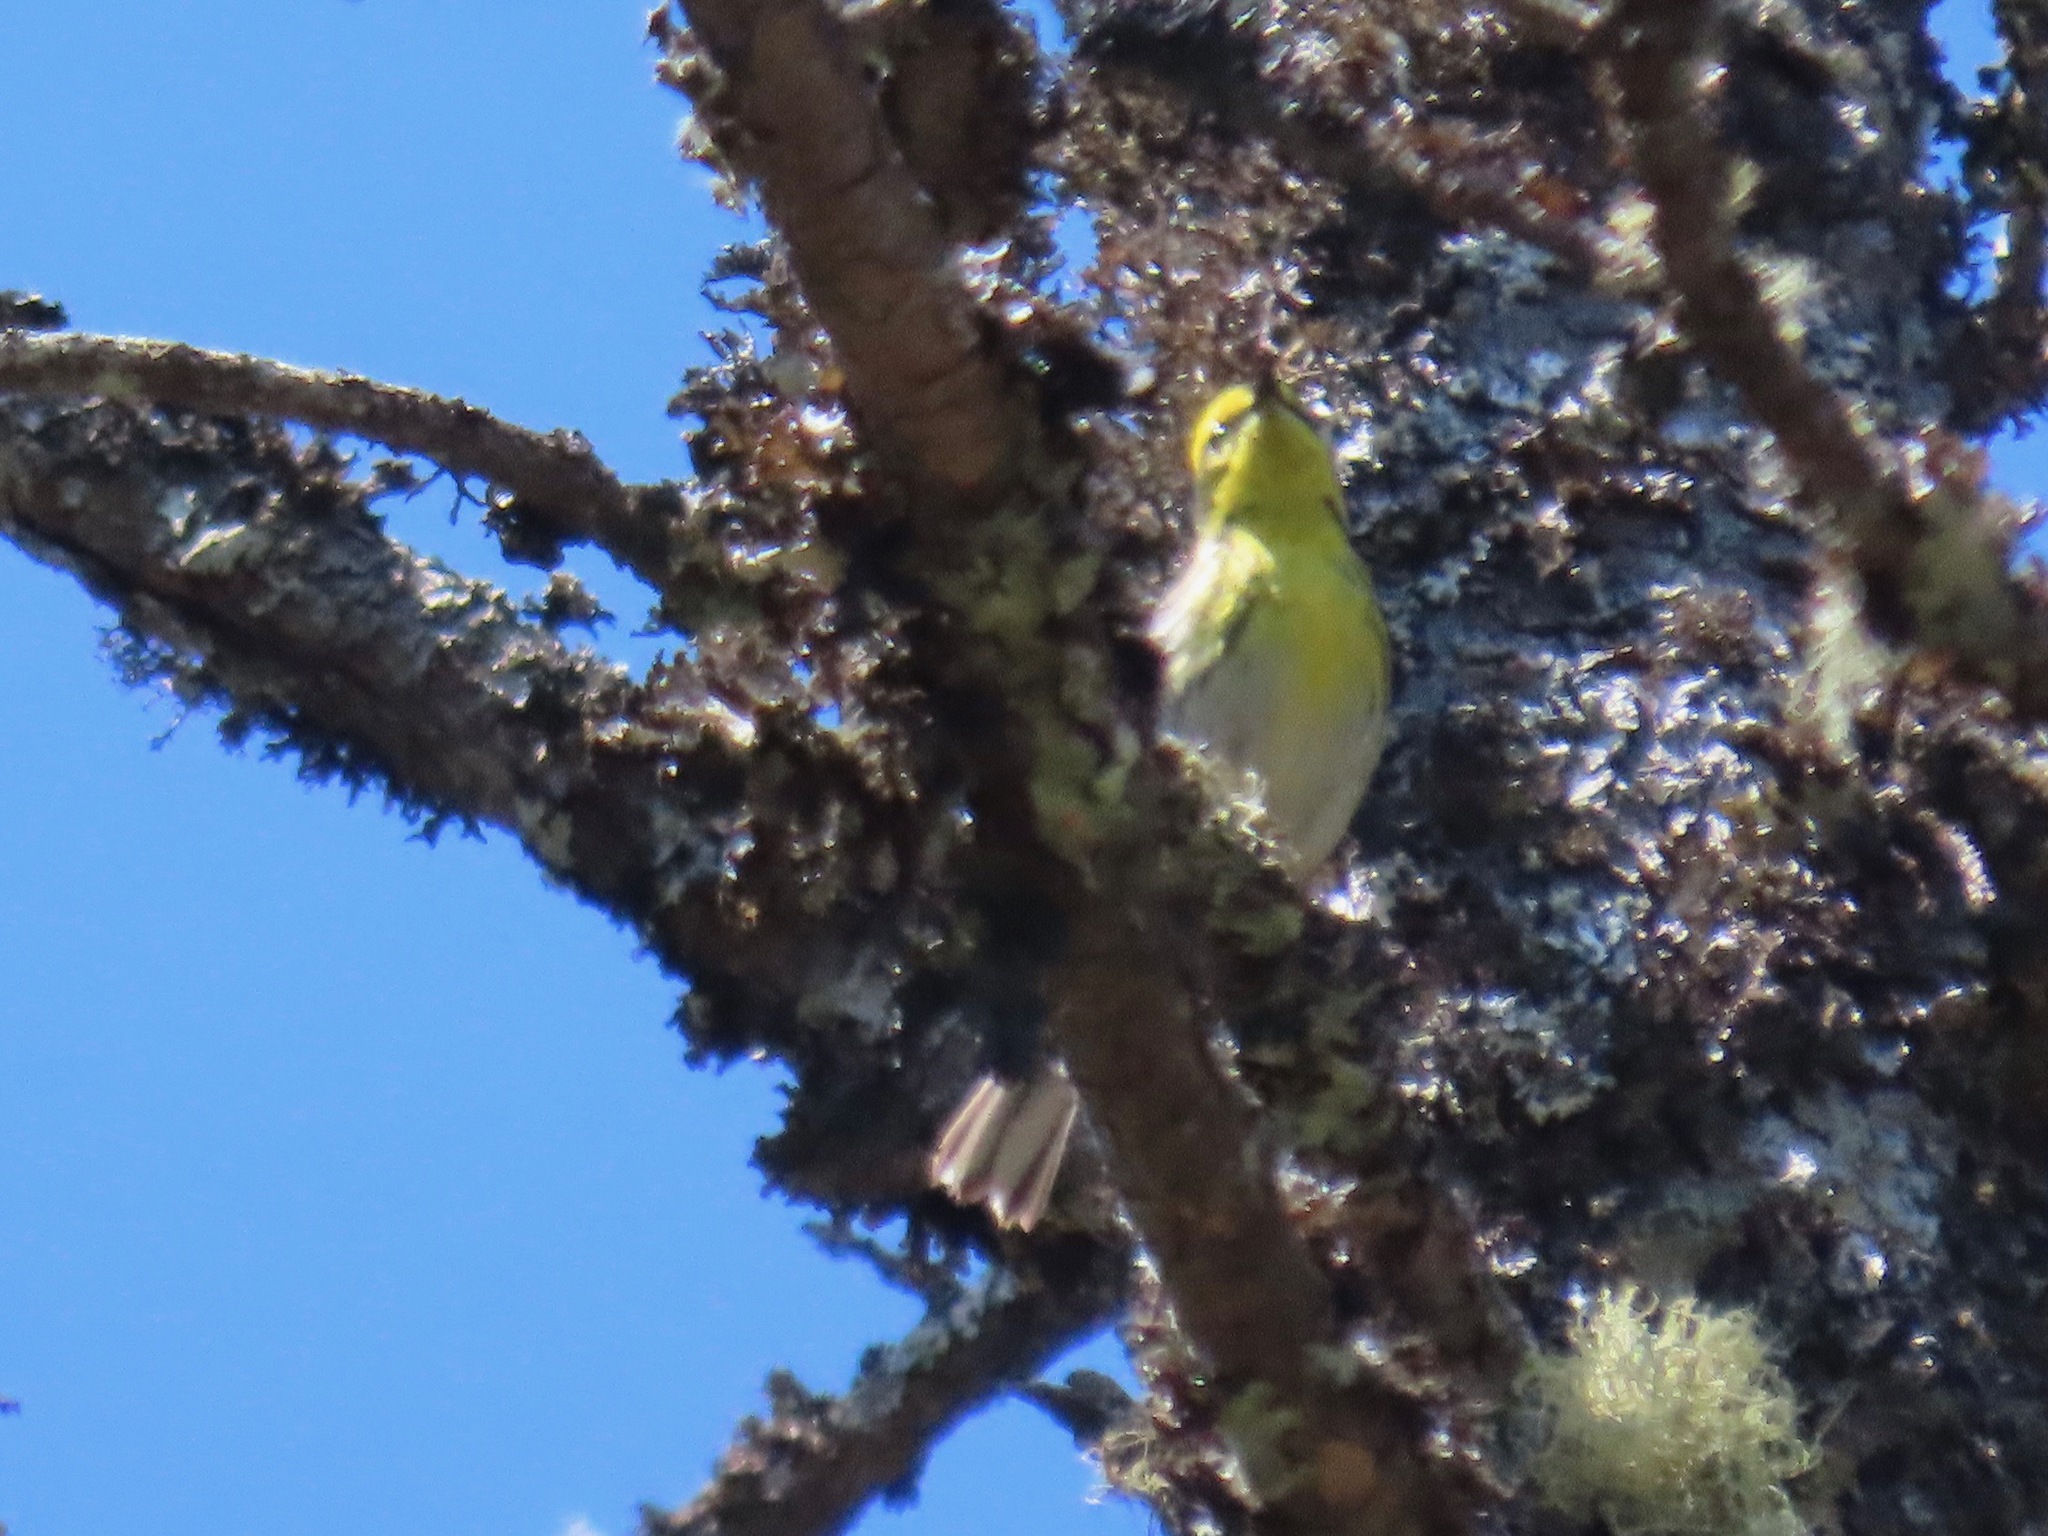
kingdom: Animalia
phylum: Chordata
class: Aves
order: Passeriformes
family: Parulidae
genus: Setophaga
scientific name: Setophaga townsendi
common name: Townsend's warbler
